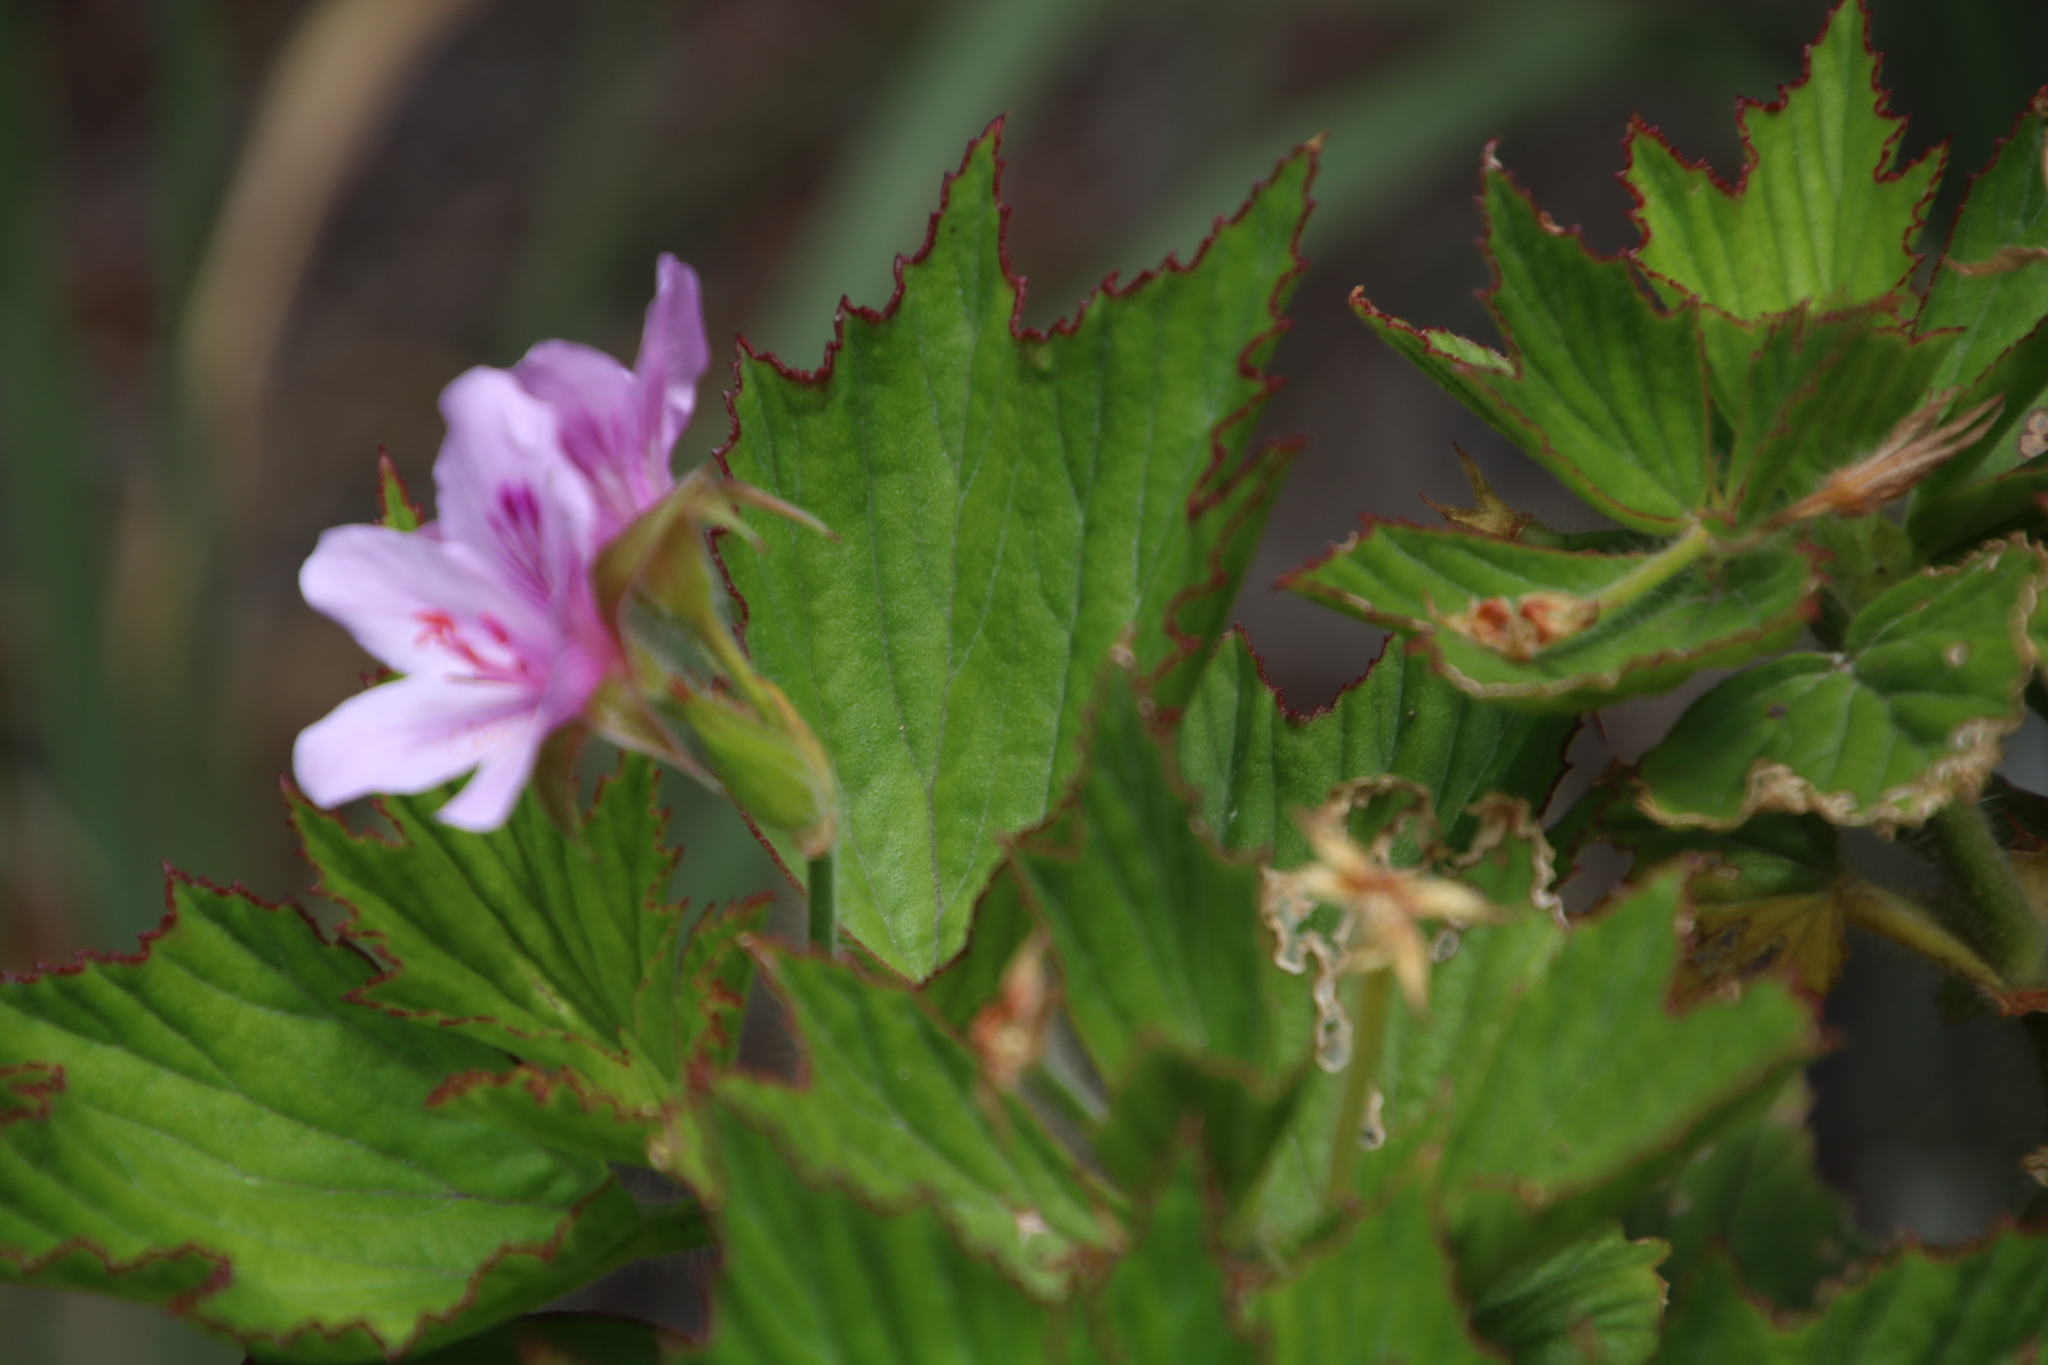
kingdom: Plantae
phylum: Tracheophyta
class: Magnoliopsida
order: Geraniales
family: Geraniaceae
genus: Pelargonium
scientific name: Pelargonium cucullatum
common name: Tree pelargonium
